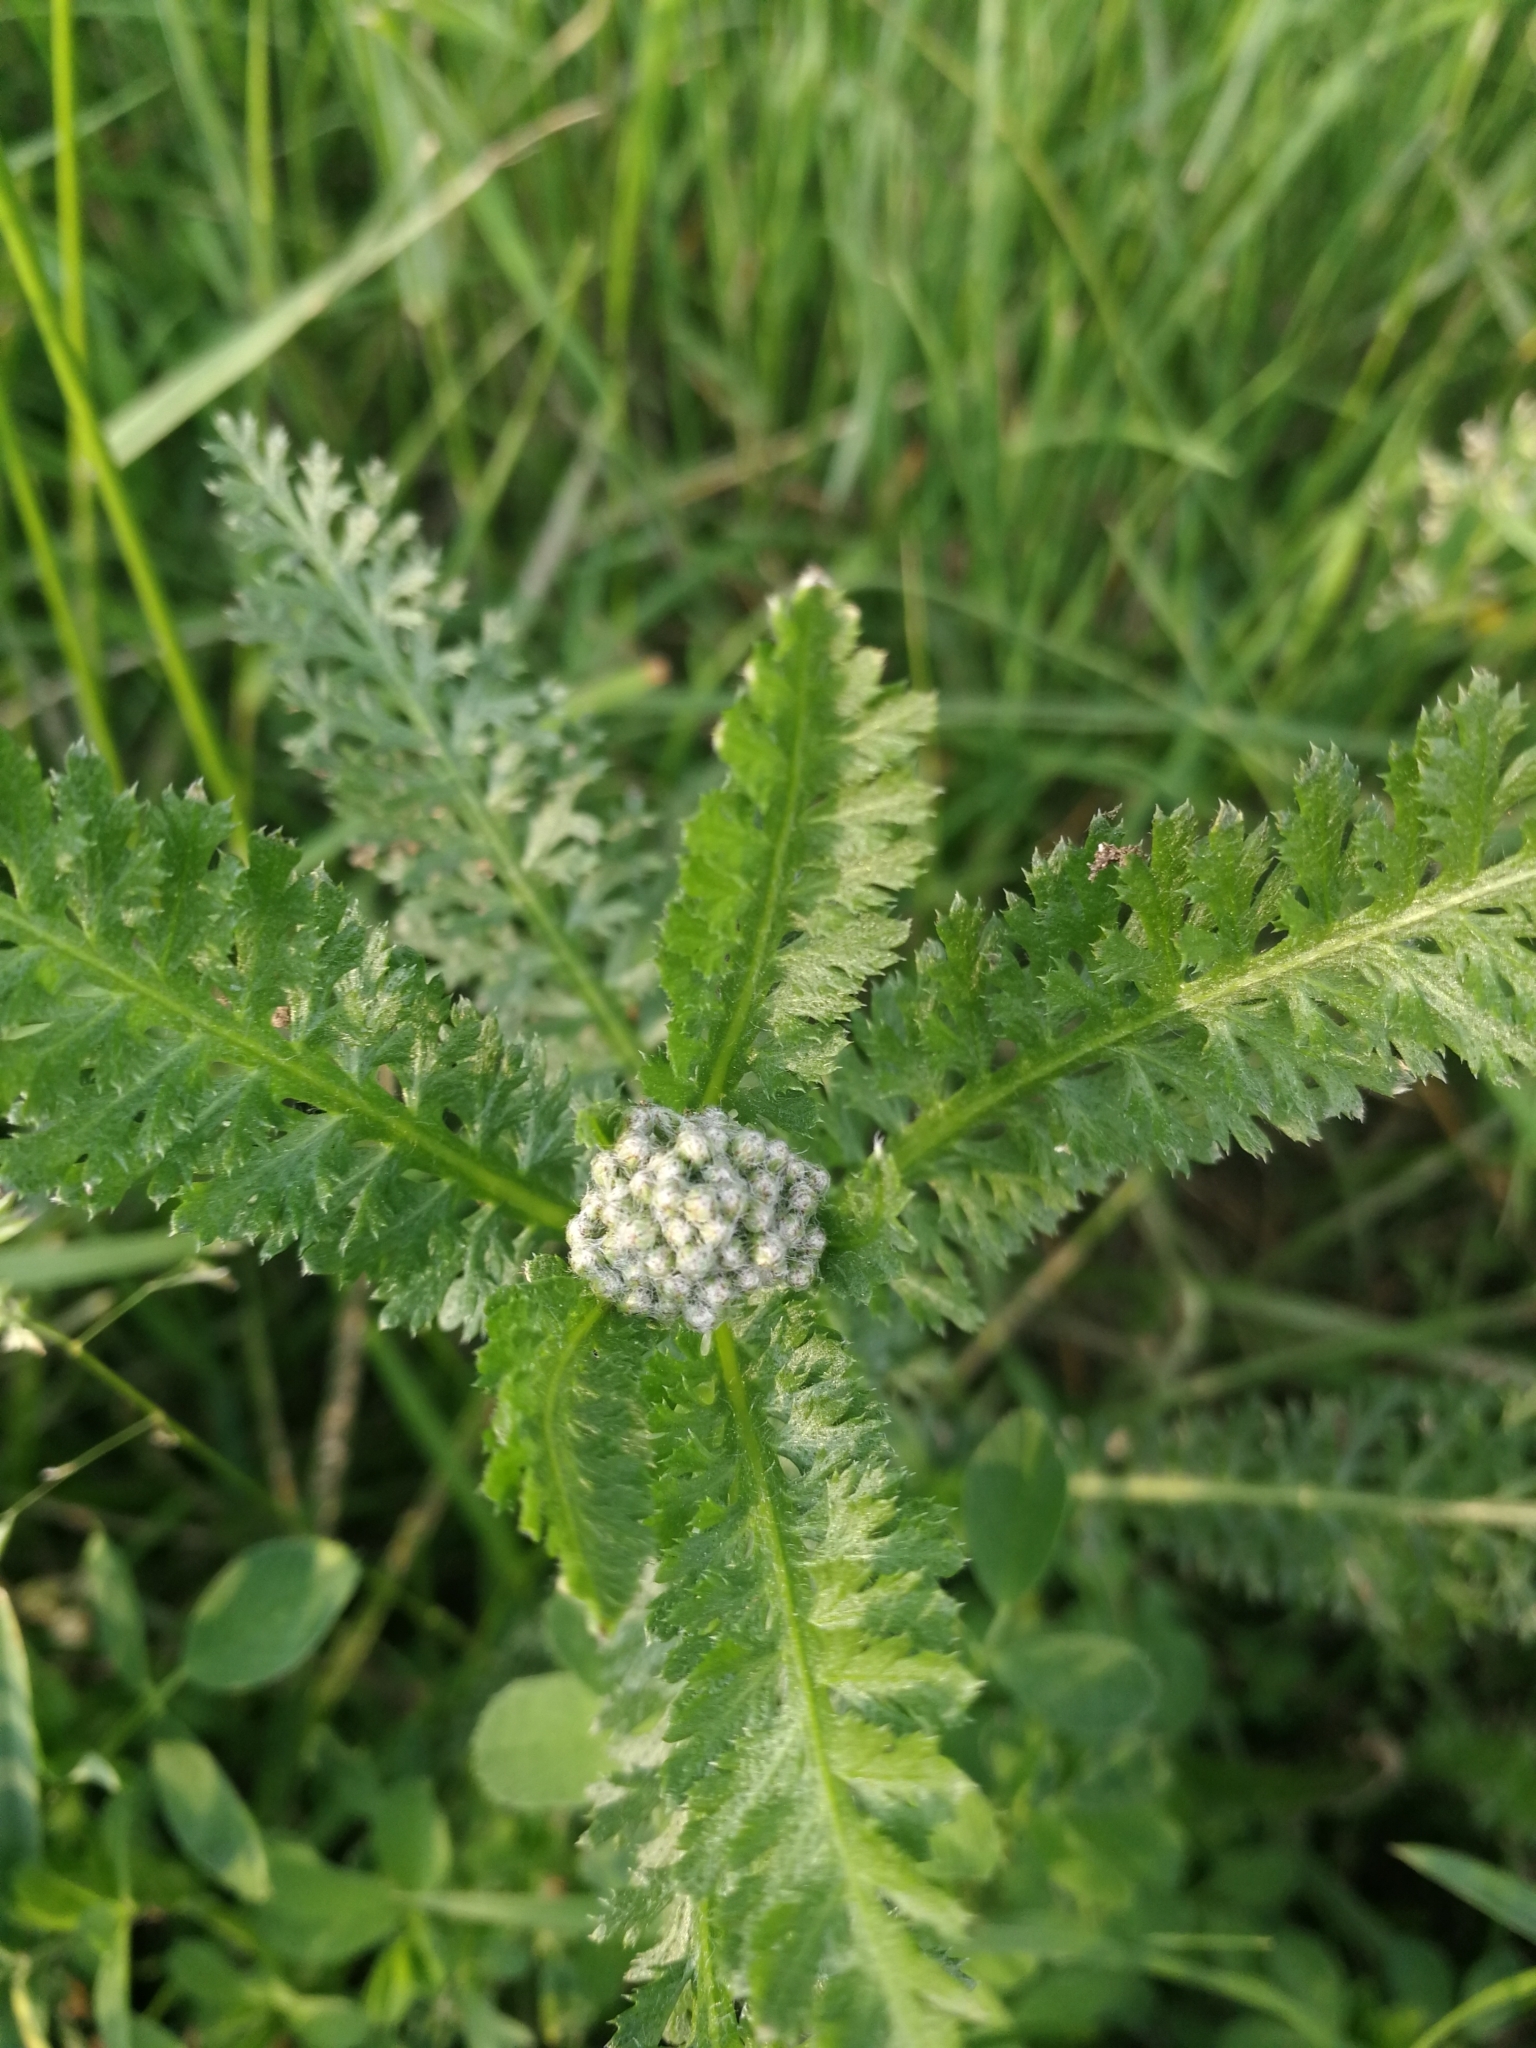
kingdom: Plantae
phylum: Tracheophyta
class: Magnoliopsida
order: Asterales
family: Asteraceae
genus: Achillea
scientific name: Achillea millefolium
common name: Yarrow
